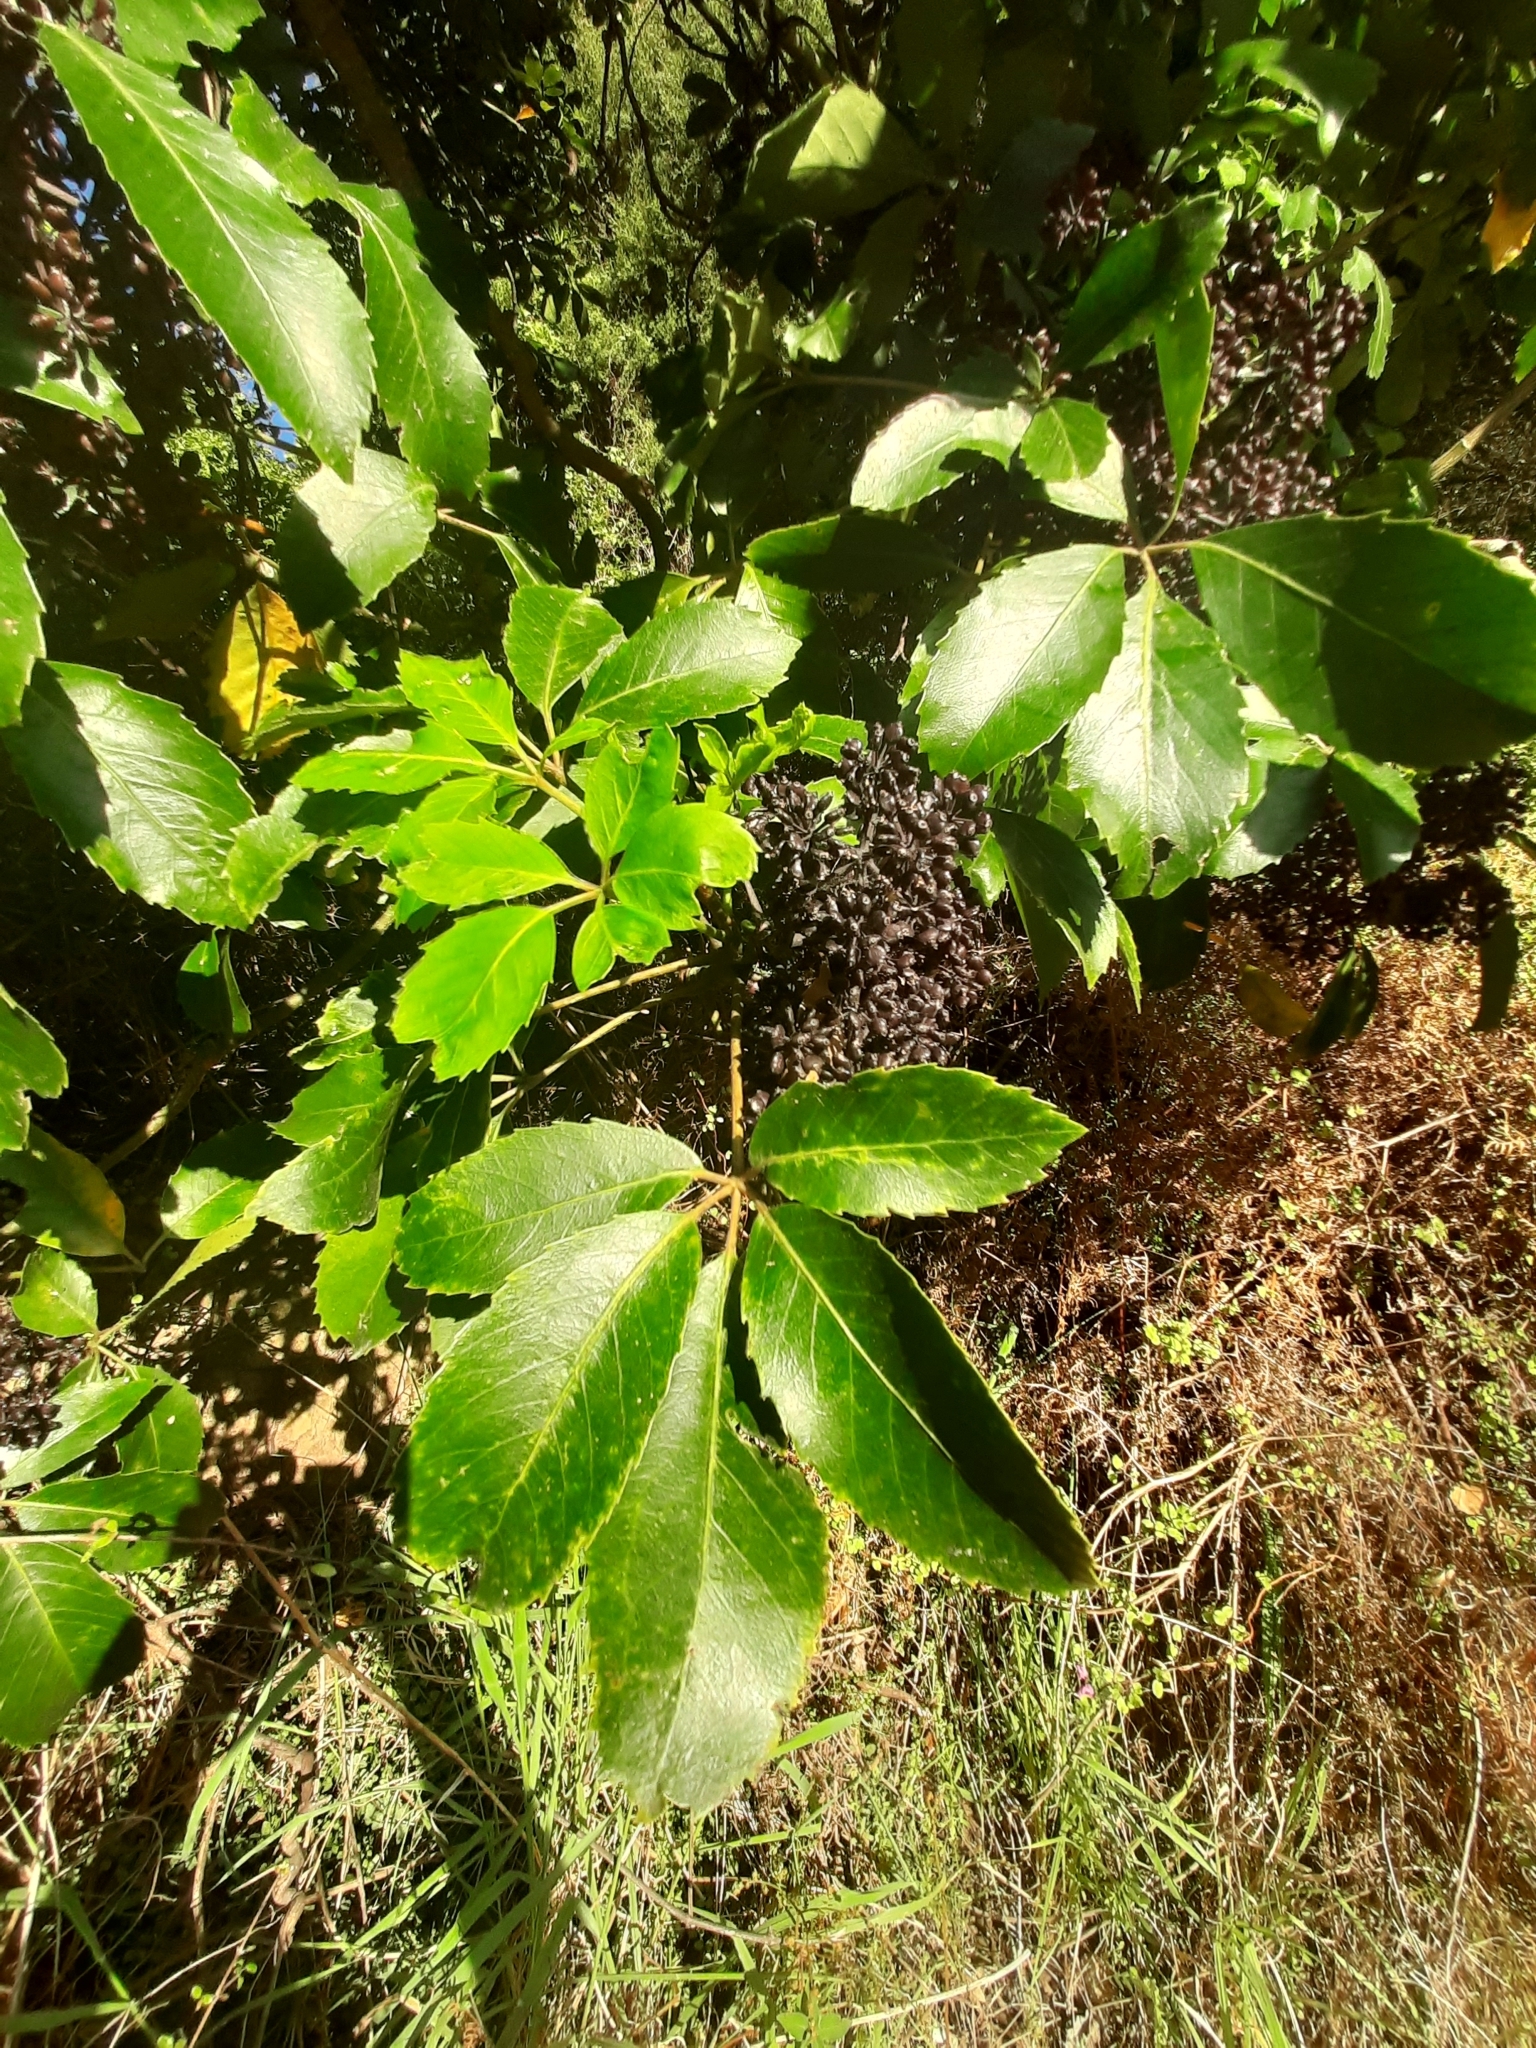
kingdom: Plantae
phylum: Tracheophyta
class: Magnoliopsida
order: Apiales
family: Araliaceae
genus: Neopanax
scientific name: Neopanax arboreus
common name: Five-fingers
